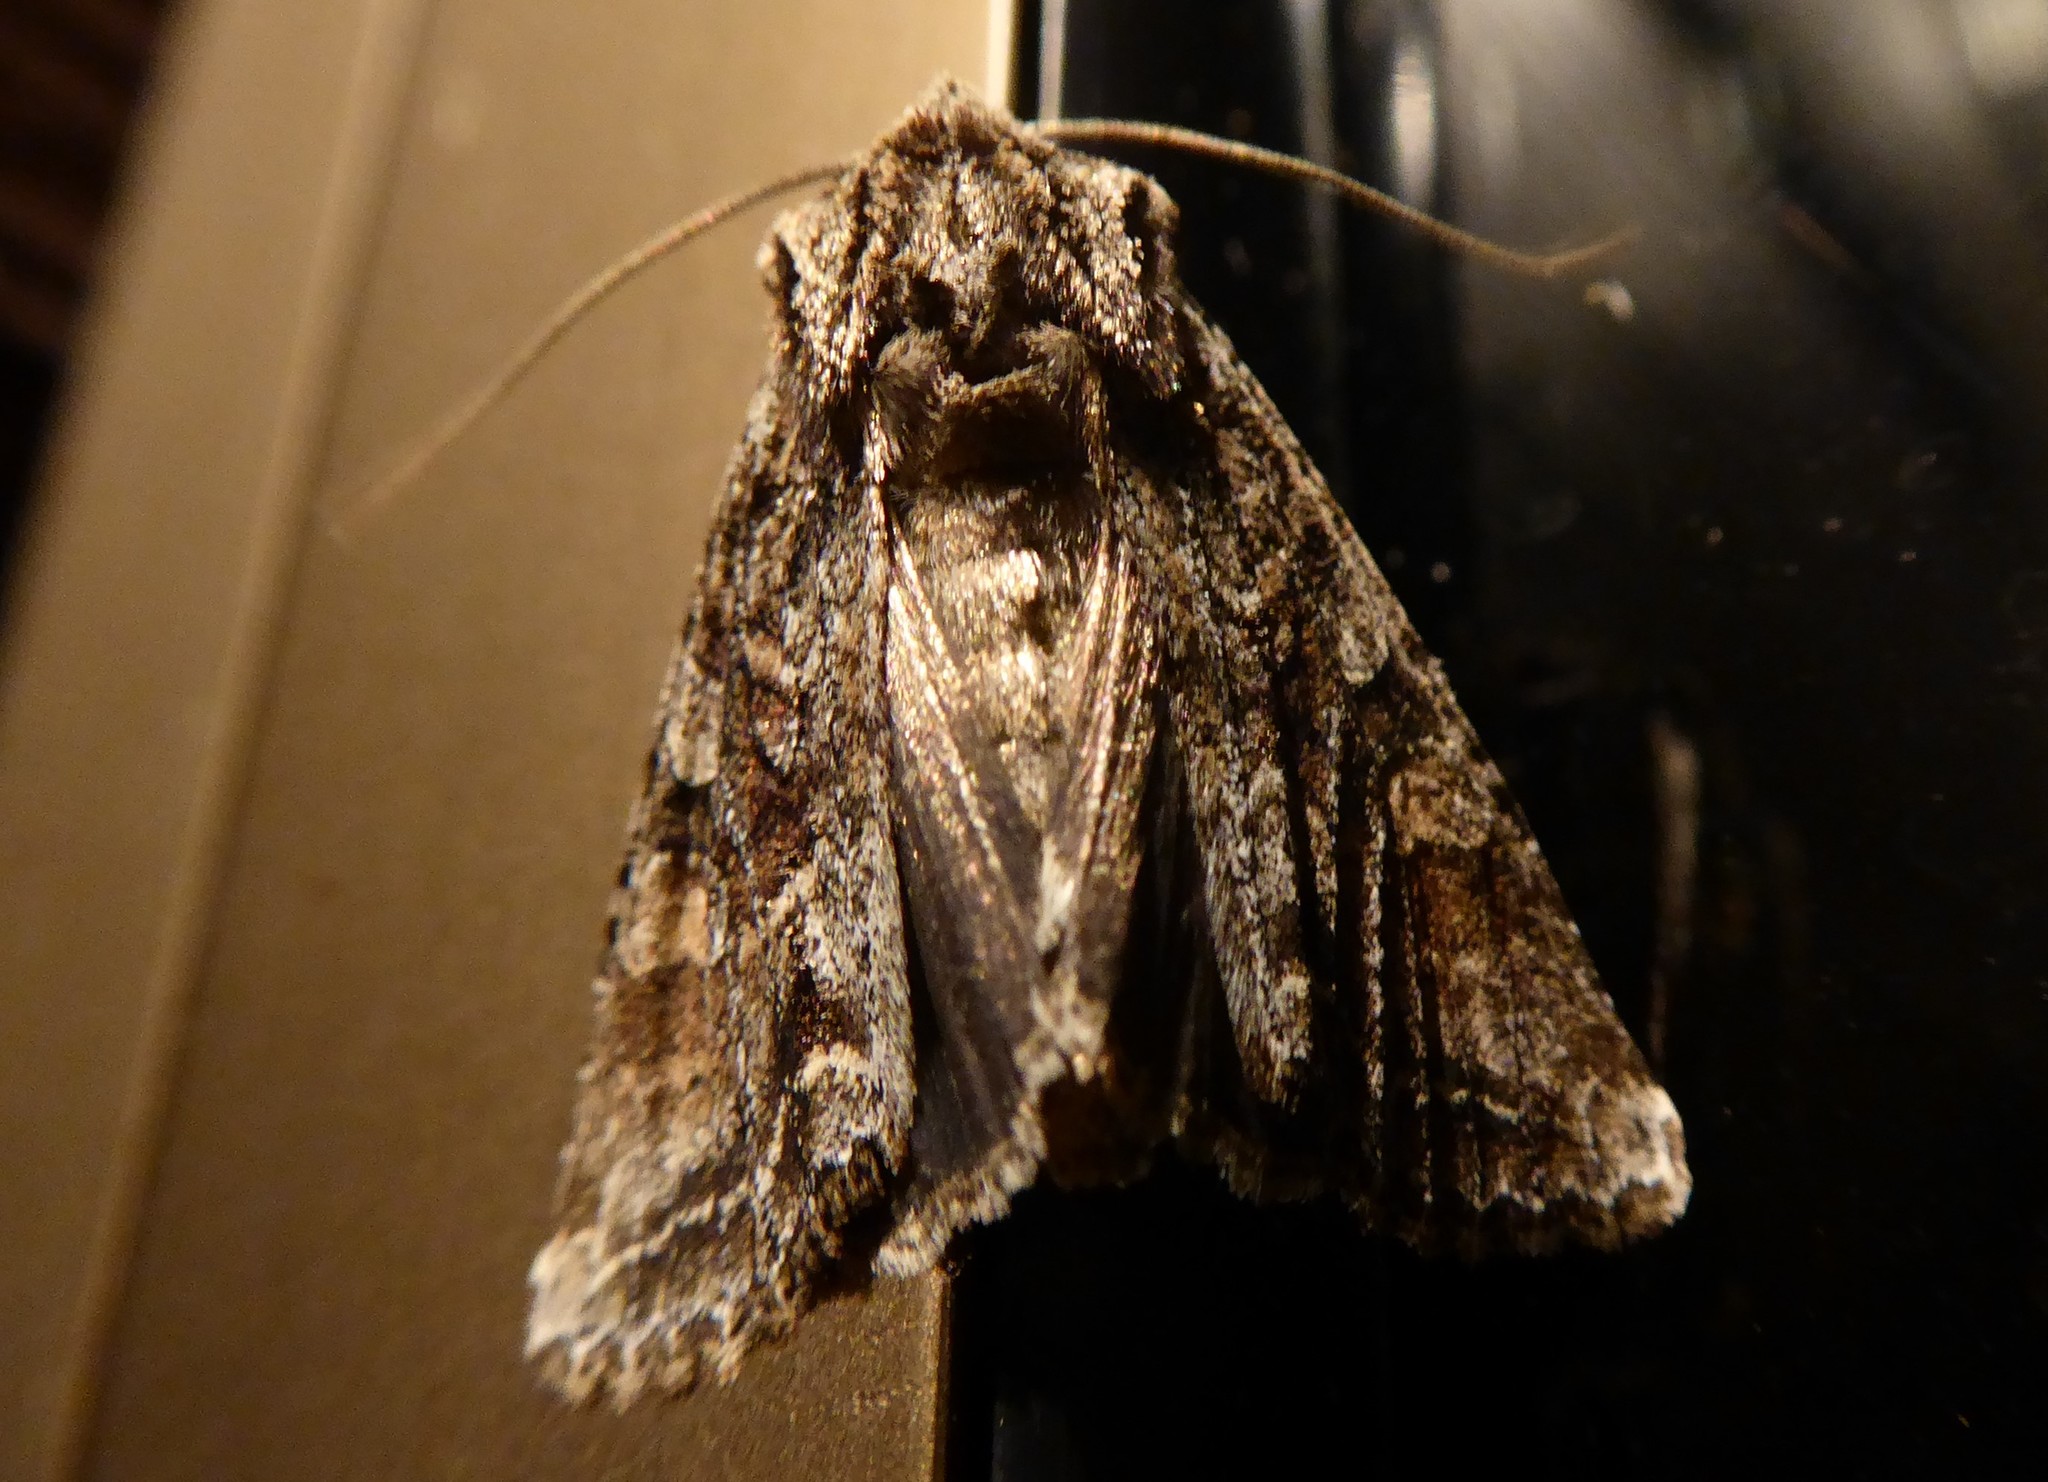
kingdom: Animalia
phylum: Arthropoda
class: Insecta
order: Lepidoptera
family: Noctuidae
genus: Ichneutica
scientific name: Ichneutica mutans
